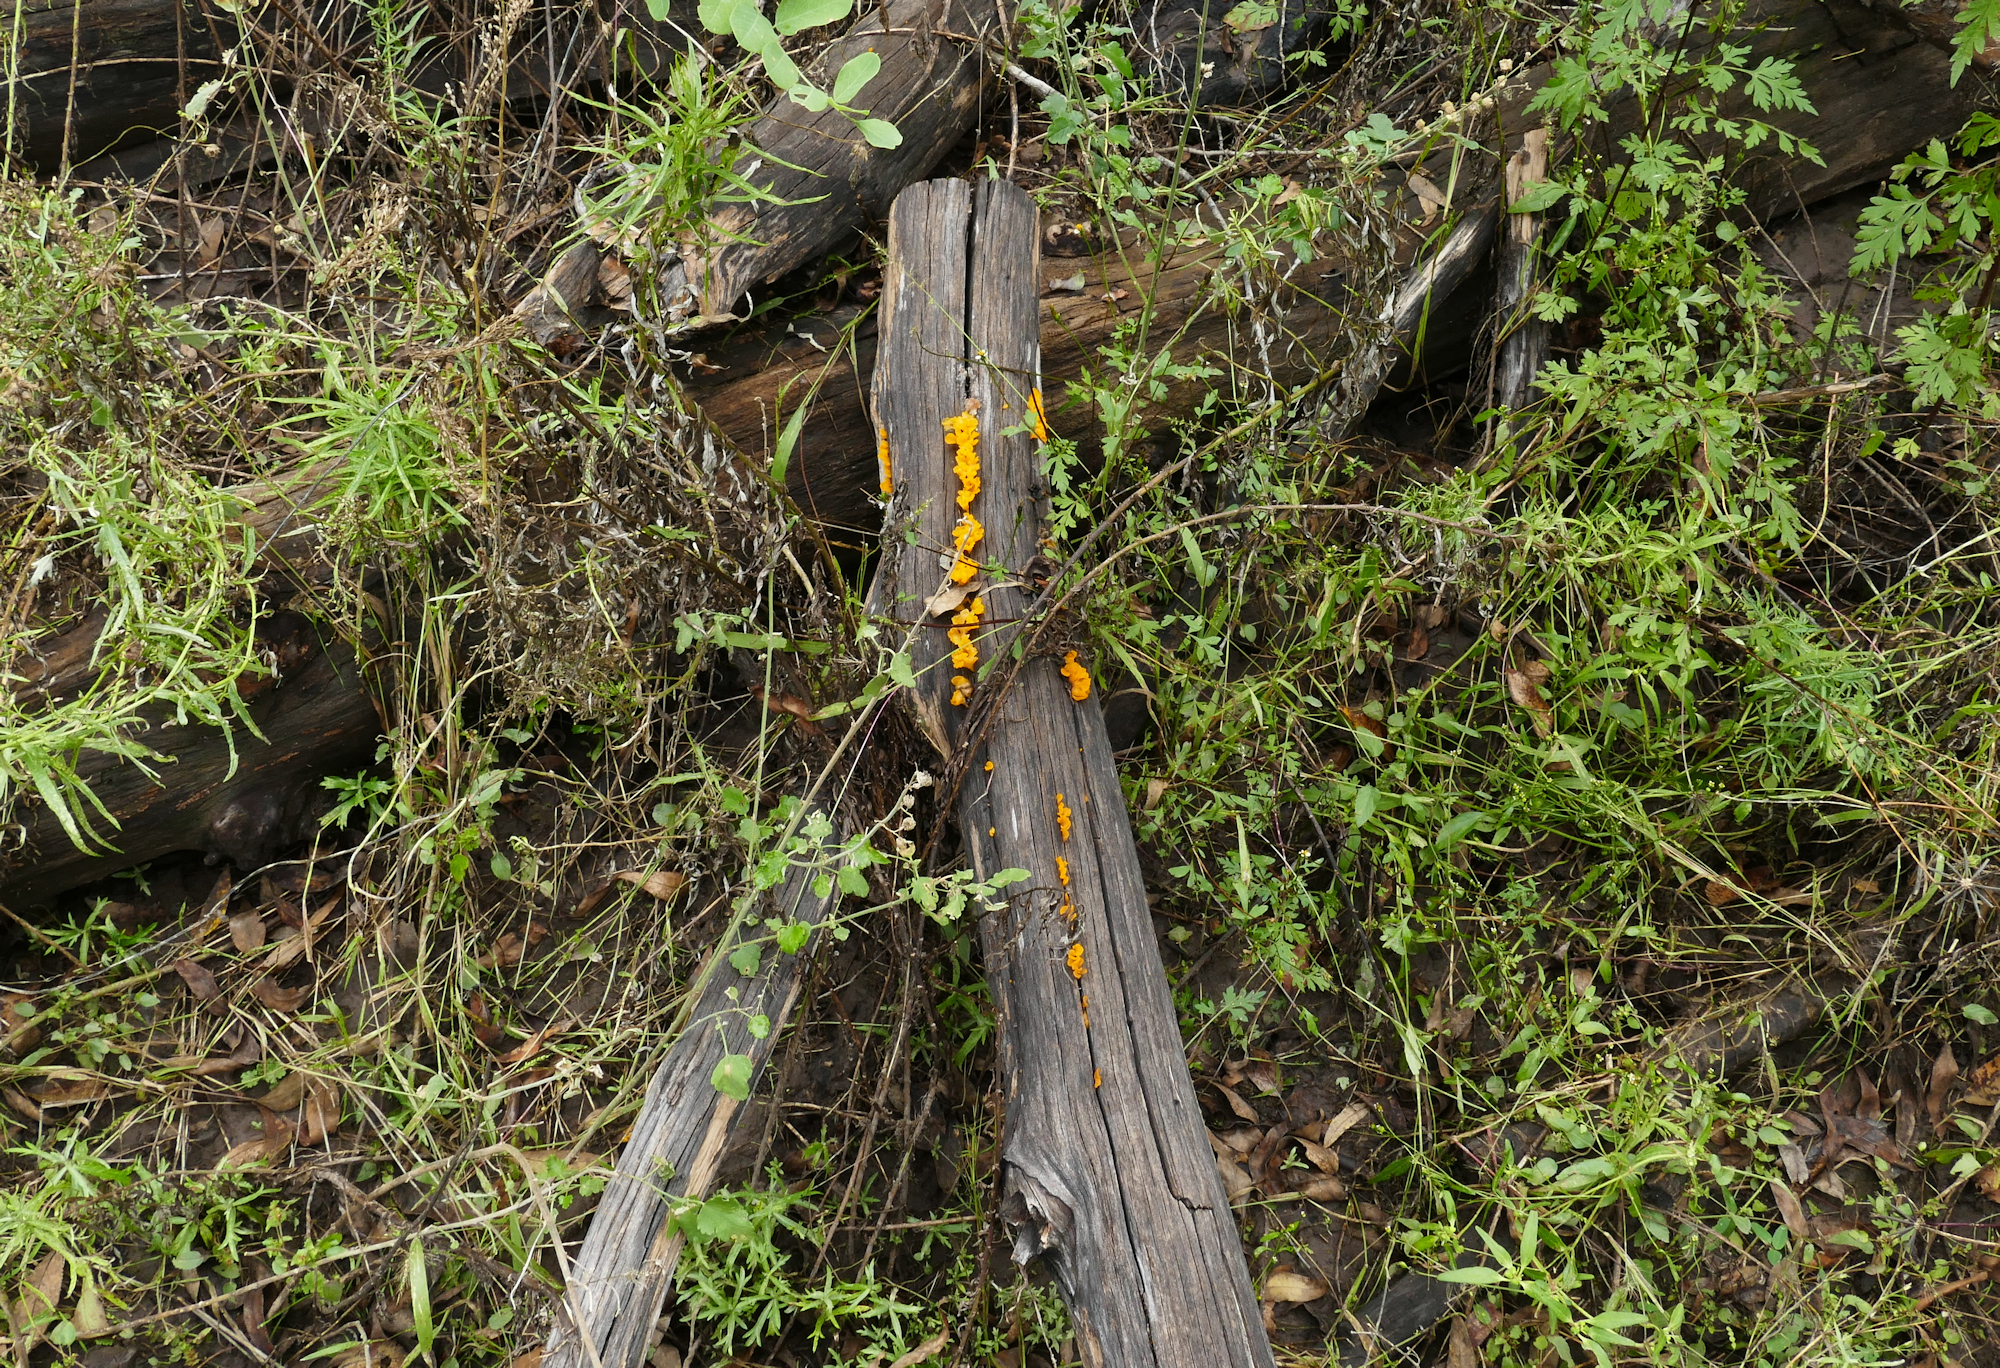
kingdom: Fungi
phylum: Basidiomycota
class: Dacrymycetes
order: Dacrymycetales
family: Dacrymycetaceae
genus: Dacrymyces
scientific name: Dacrymyces spathularius
